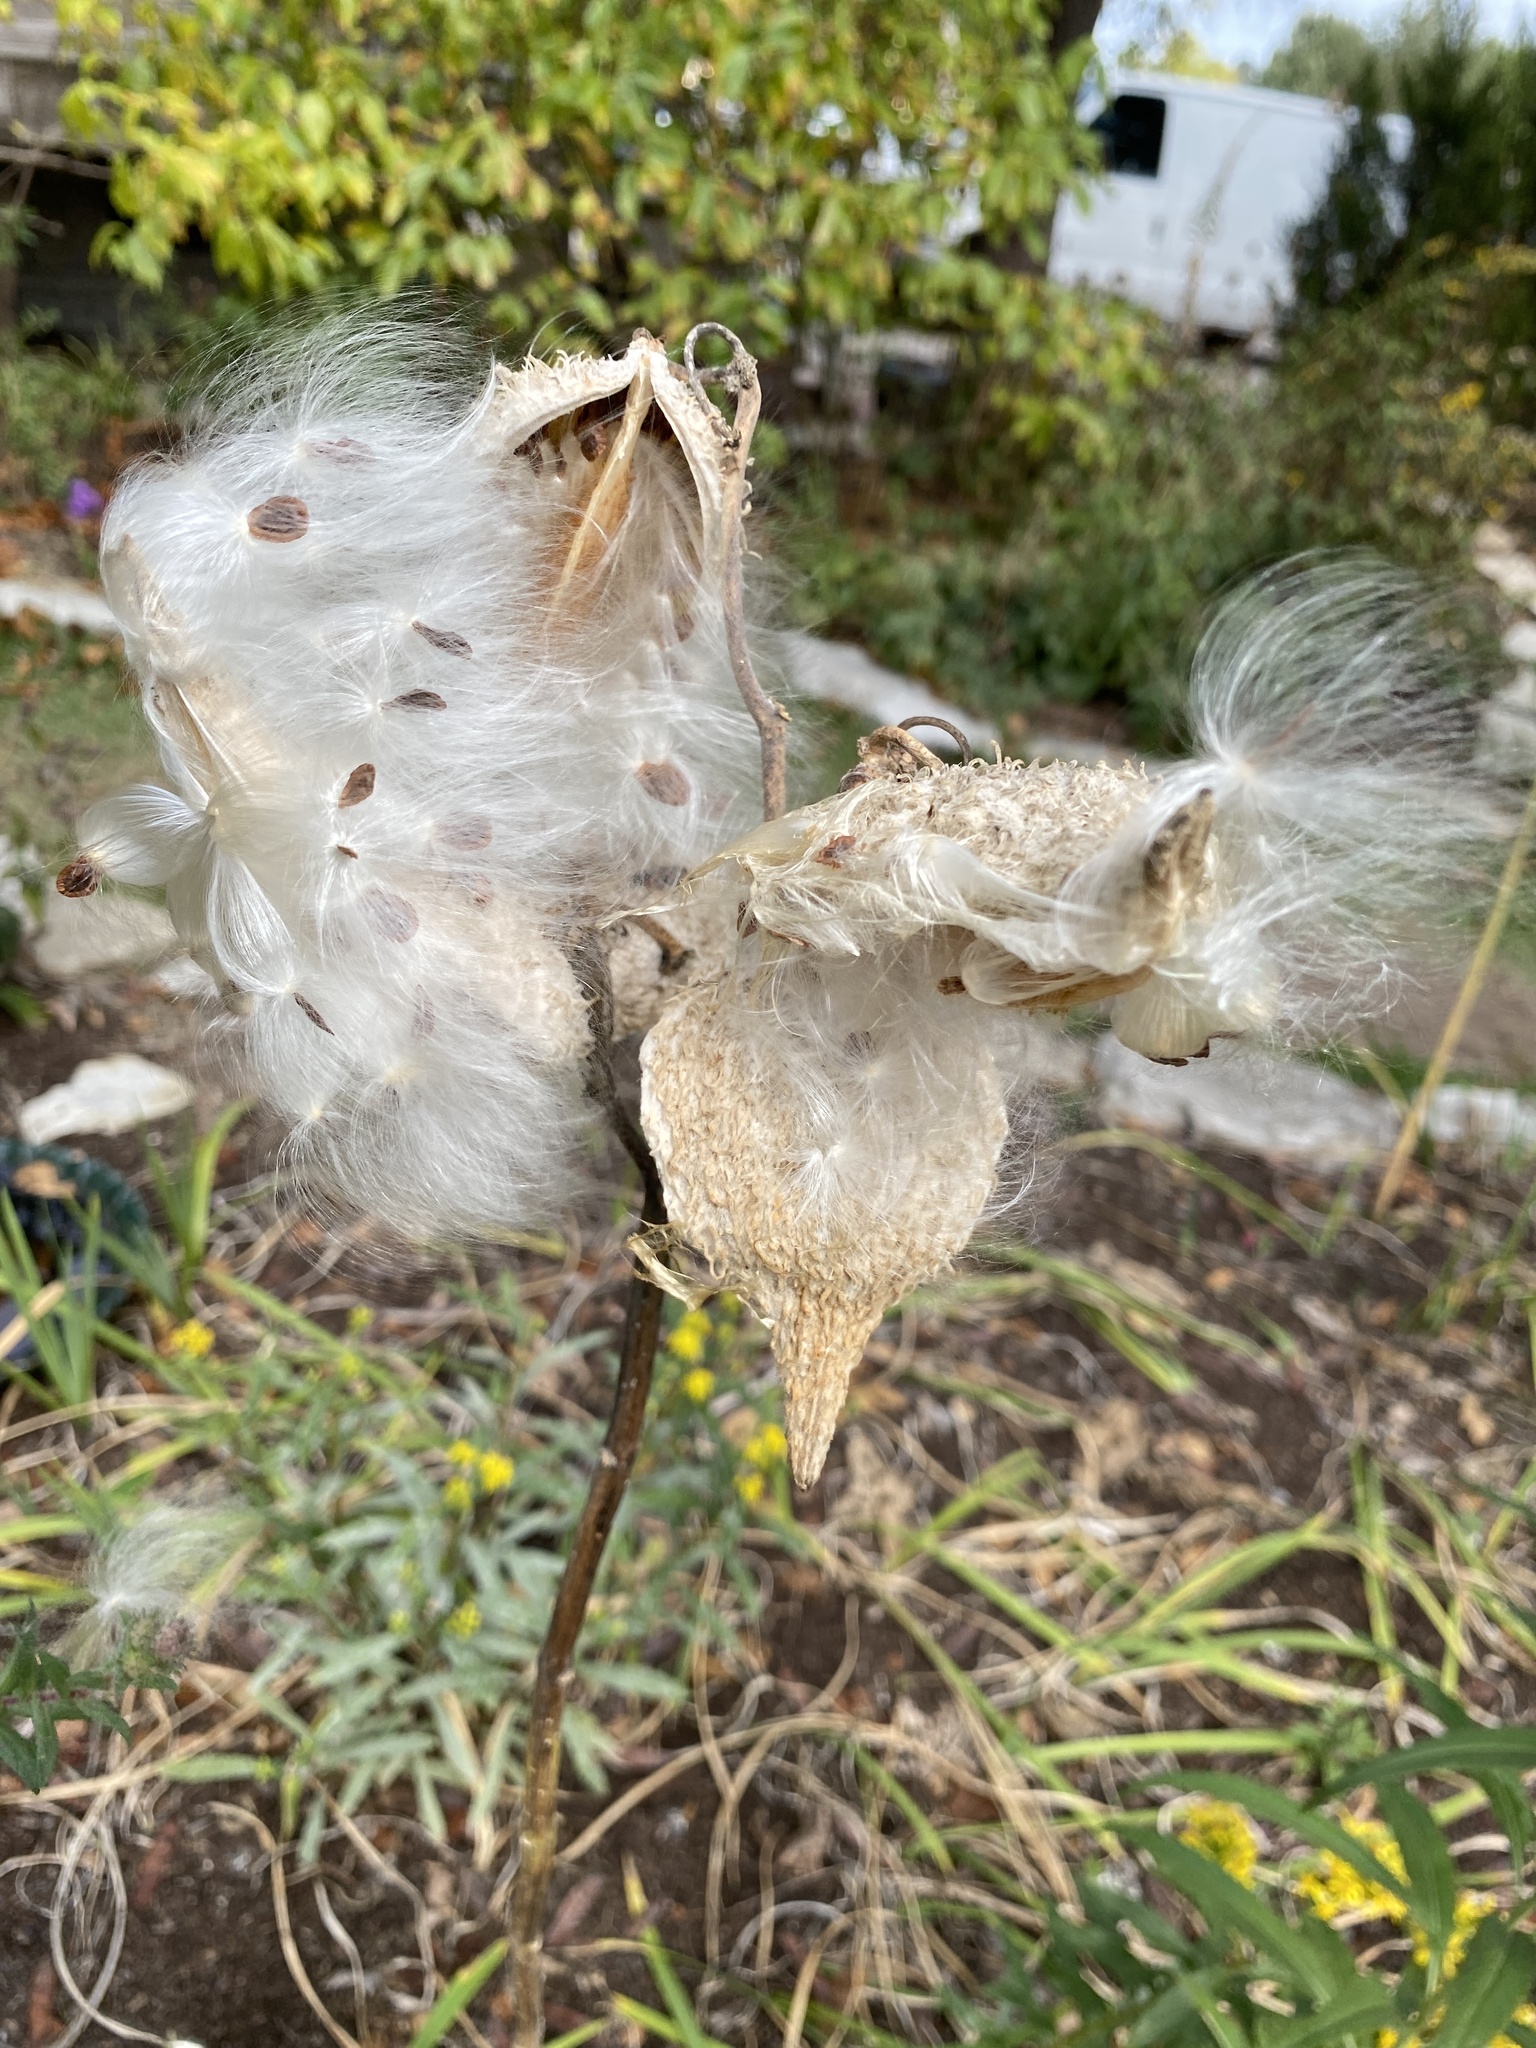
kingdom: Plantae
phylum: Tracheophyta
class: Magnoliopsida
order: Gentianales
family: Apocynaceae
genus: Asclepias
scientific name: Asclepias syriaca
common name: Common milkweed
